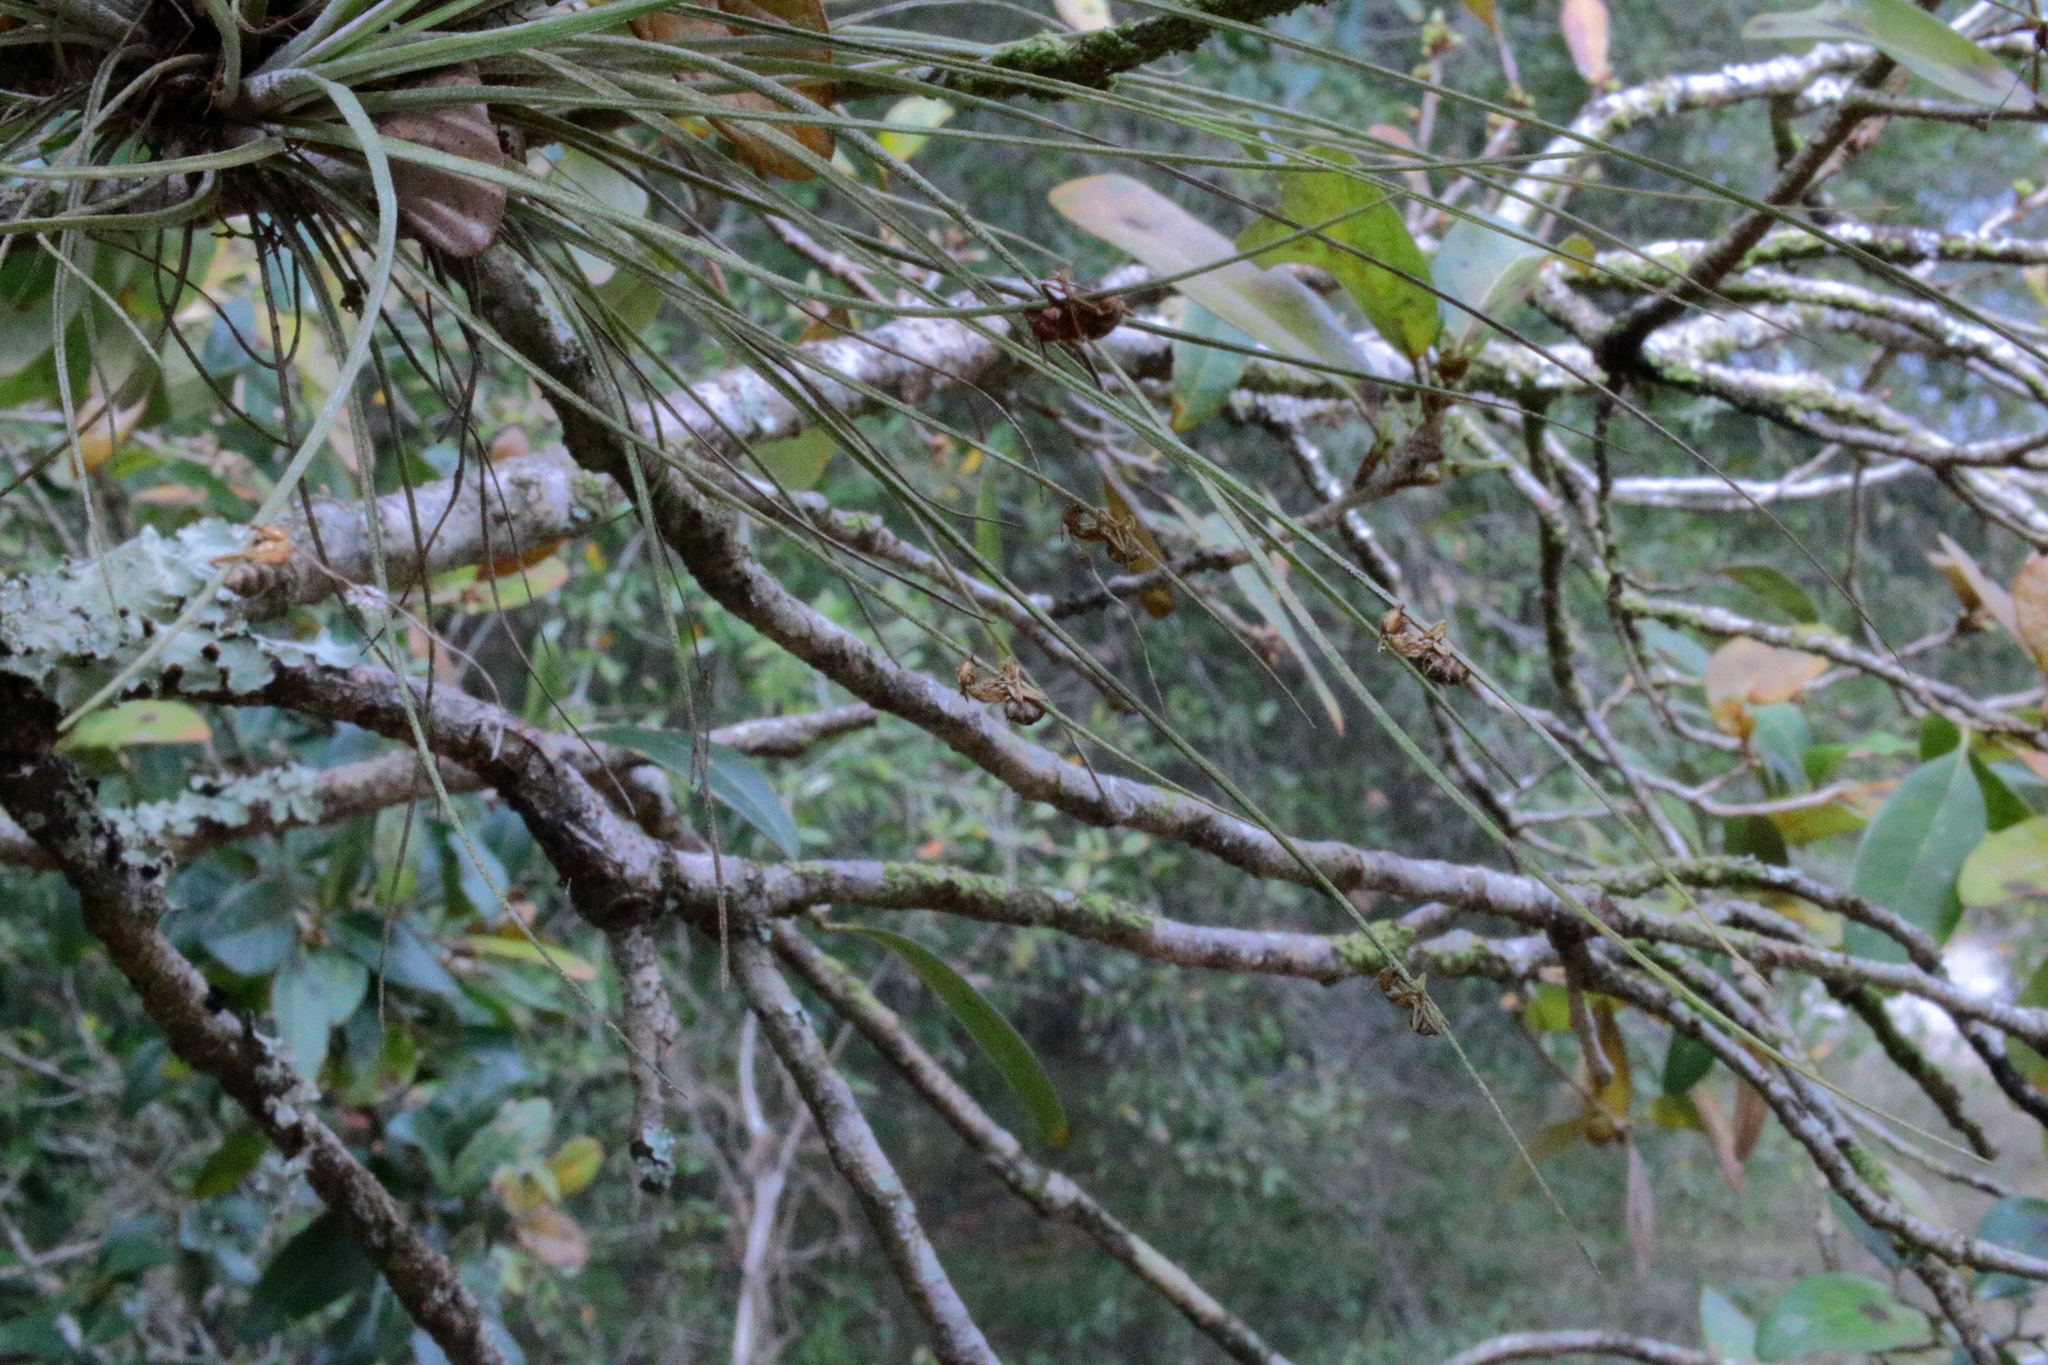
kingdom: Fungi
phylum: Ascomycota
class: Sordariomycetes
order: Hypocreales
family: Ophiocordycipitaceae
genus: Ophiocordyceps
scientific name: Ophiocordyceps camponoti-floridani
